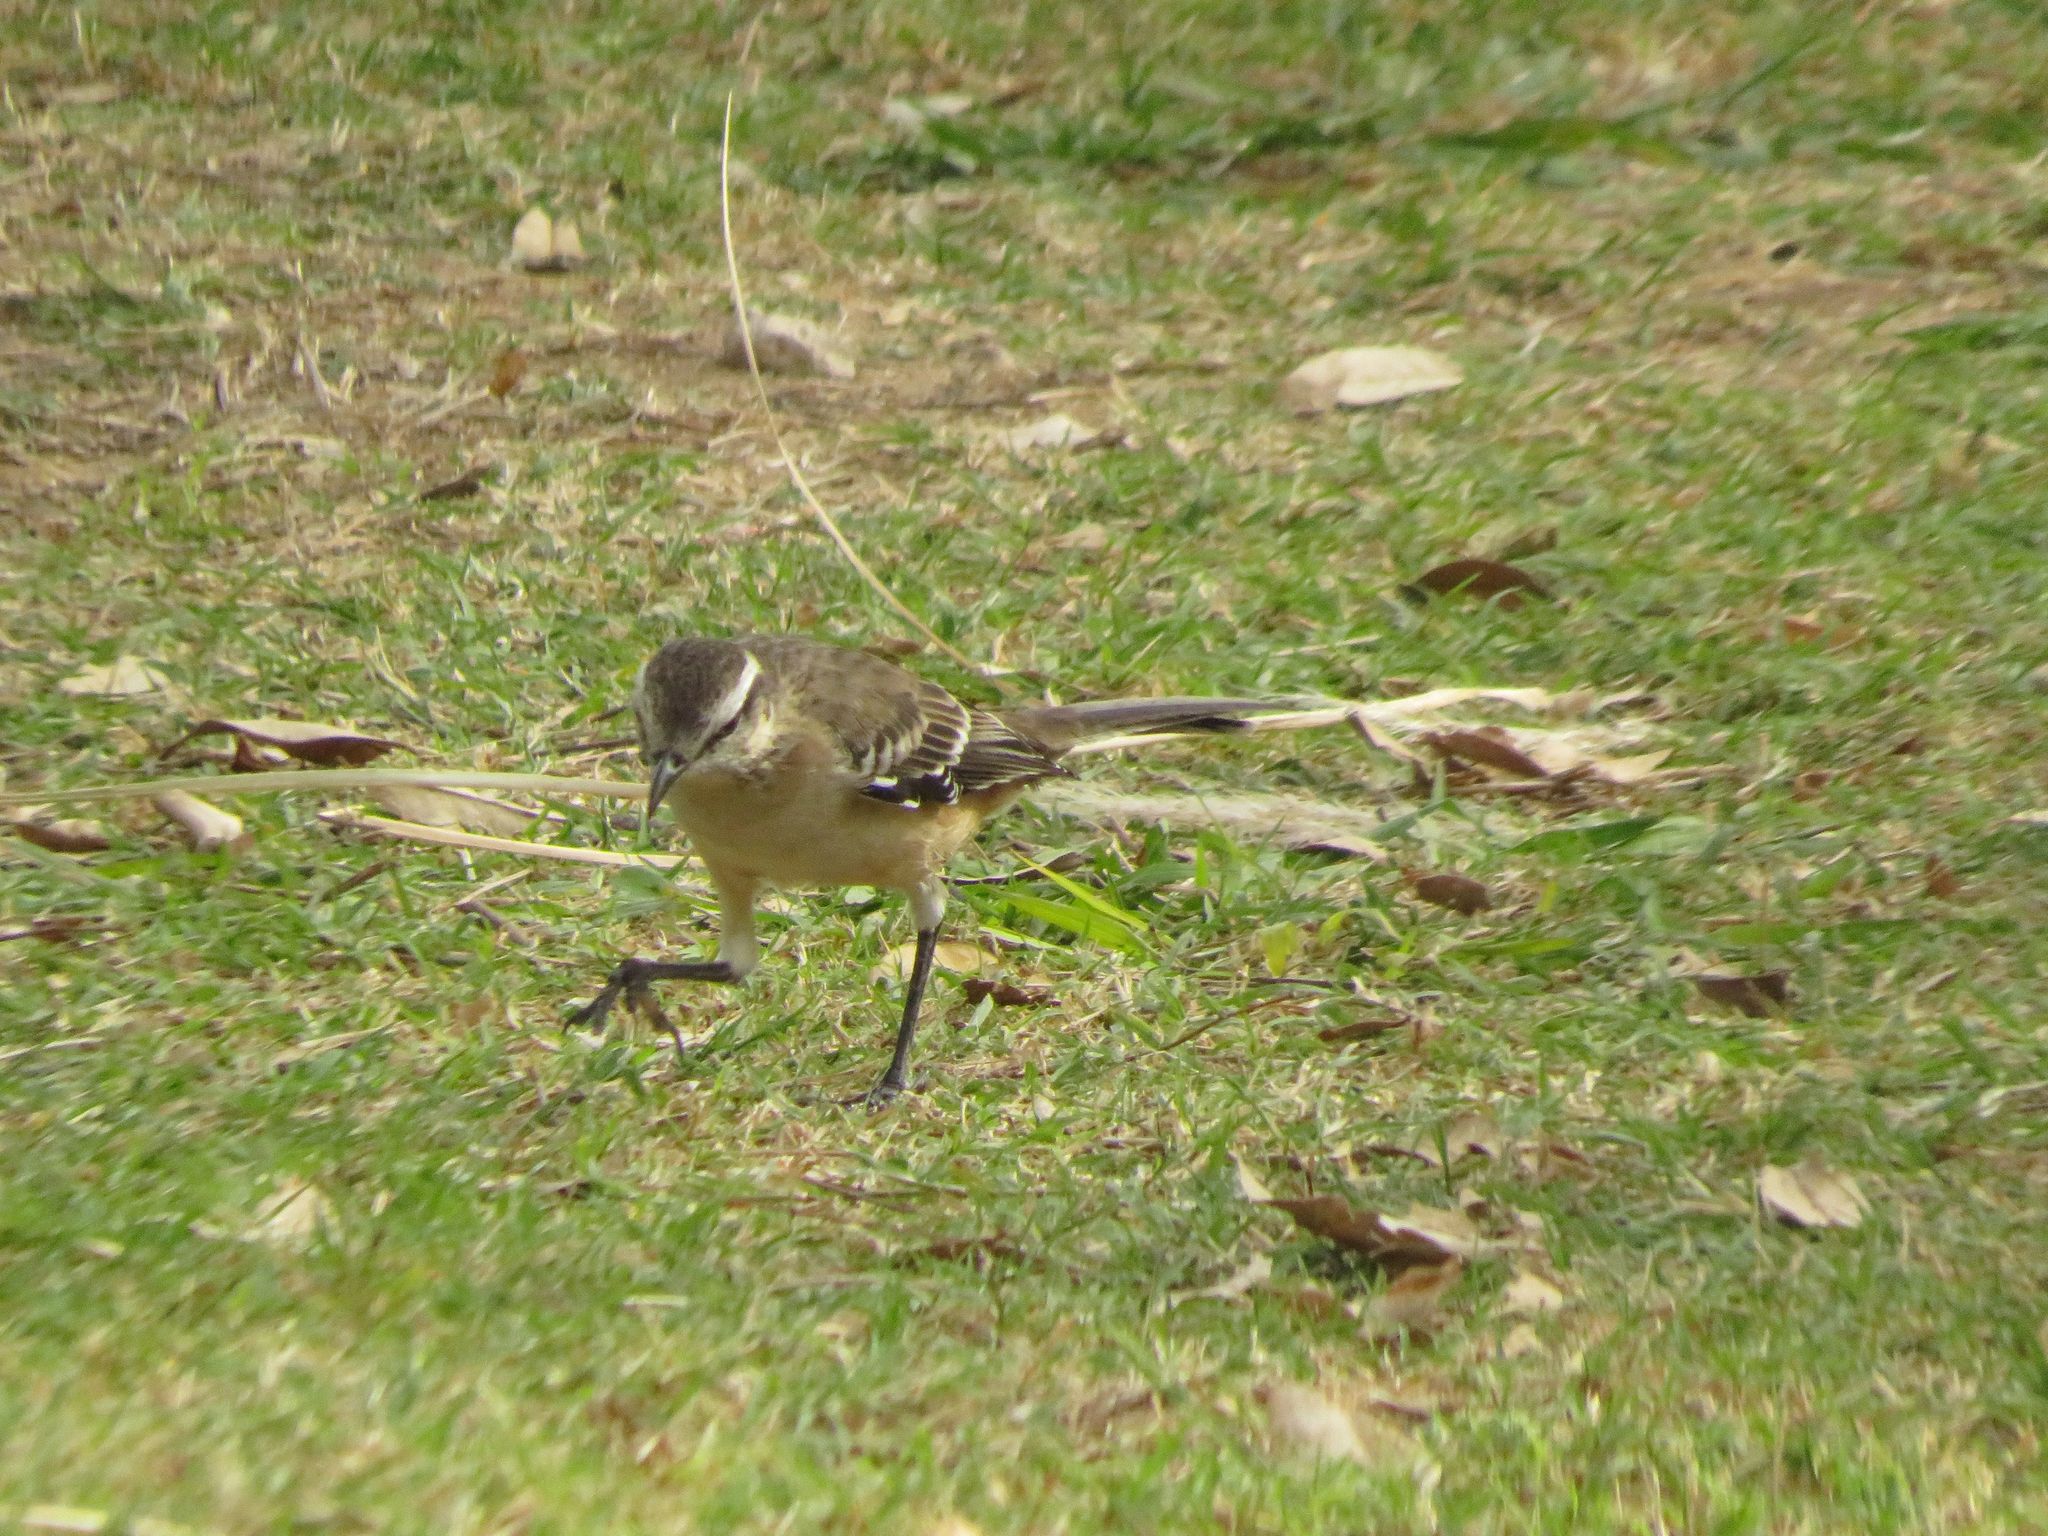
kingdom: Animalia
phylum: Chordata
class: Aves
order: Passeriformes
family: Mimidae
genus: Mimus
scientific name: Mimus saturninus
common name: Chalk-browed mockingbird
